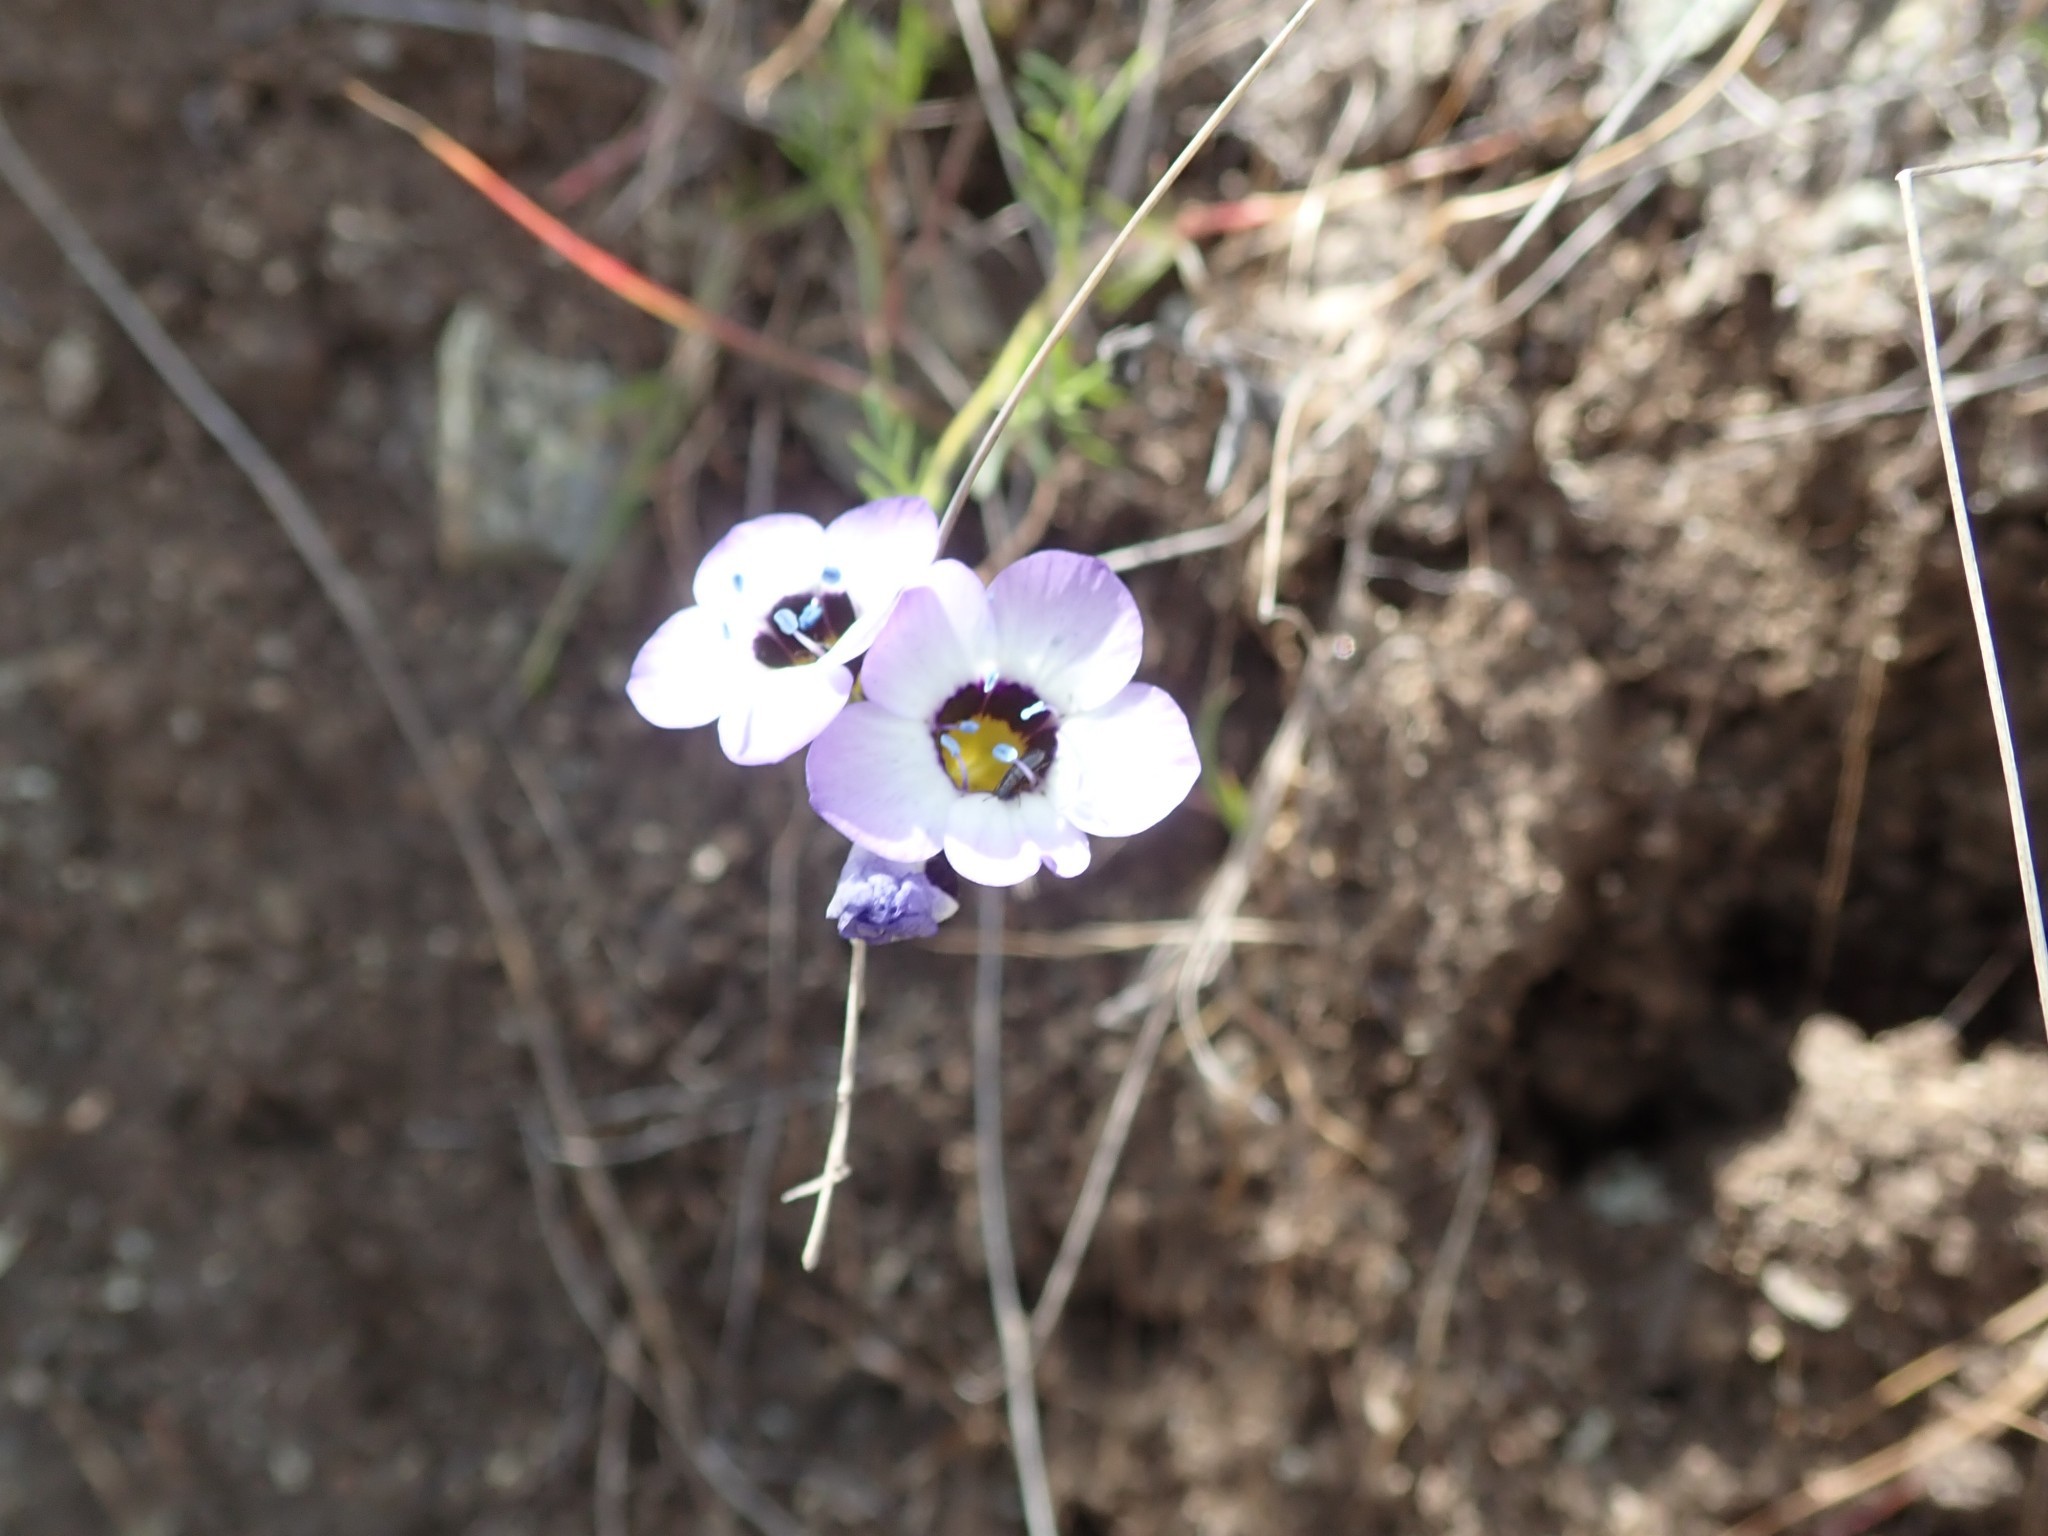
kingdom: Plantae
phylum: Tracheophyta
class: Magnoliopsida
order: Ericales
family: Polemoniaceae
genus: Gilia
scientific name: Gilia tricolor
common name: Bird's-eyes
